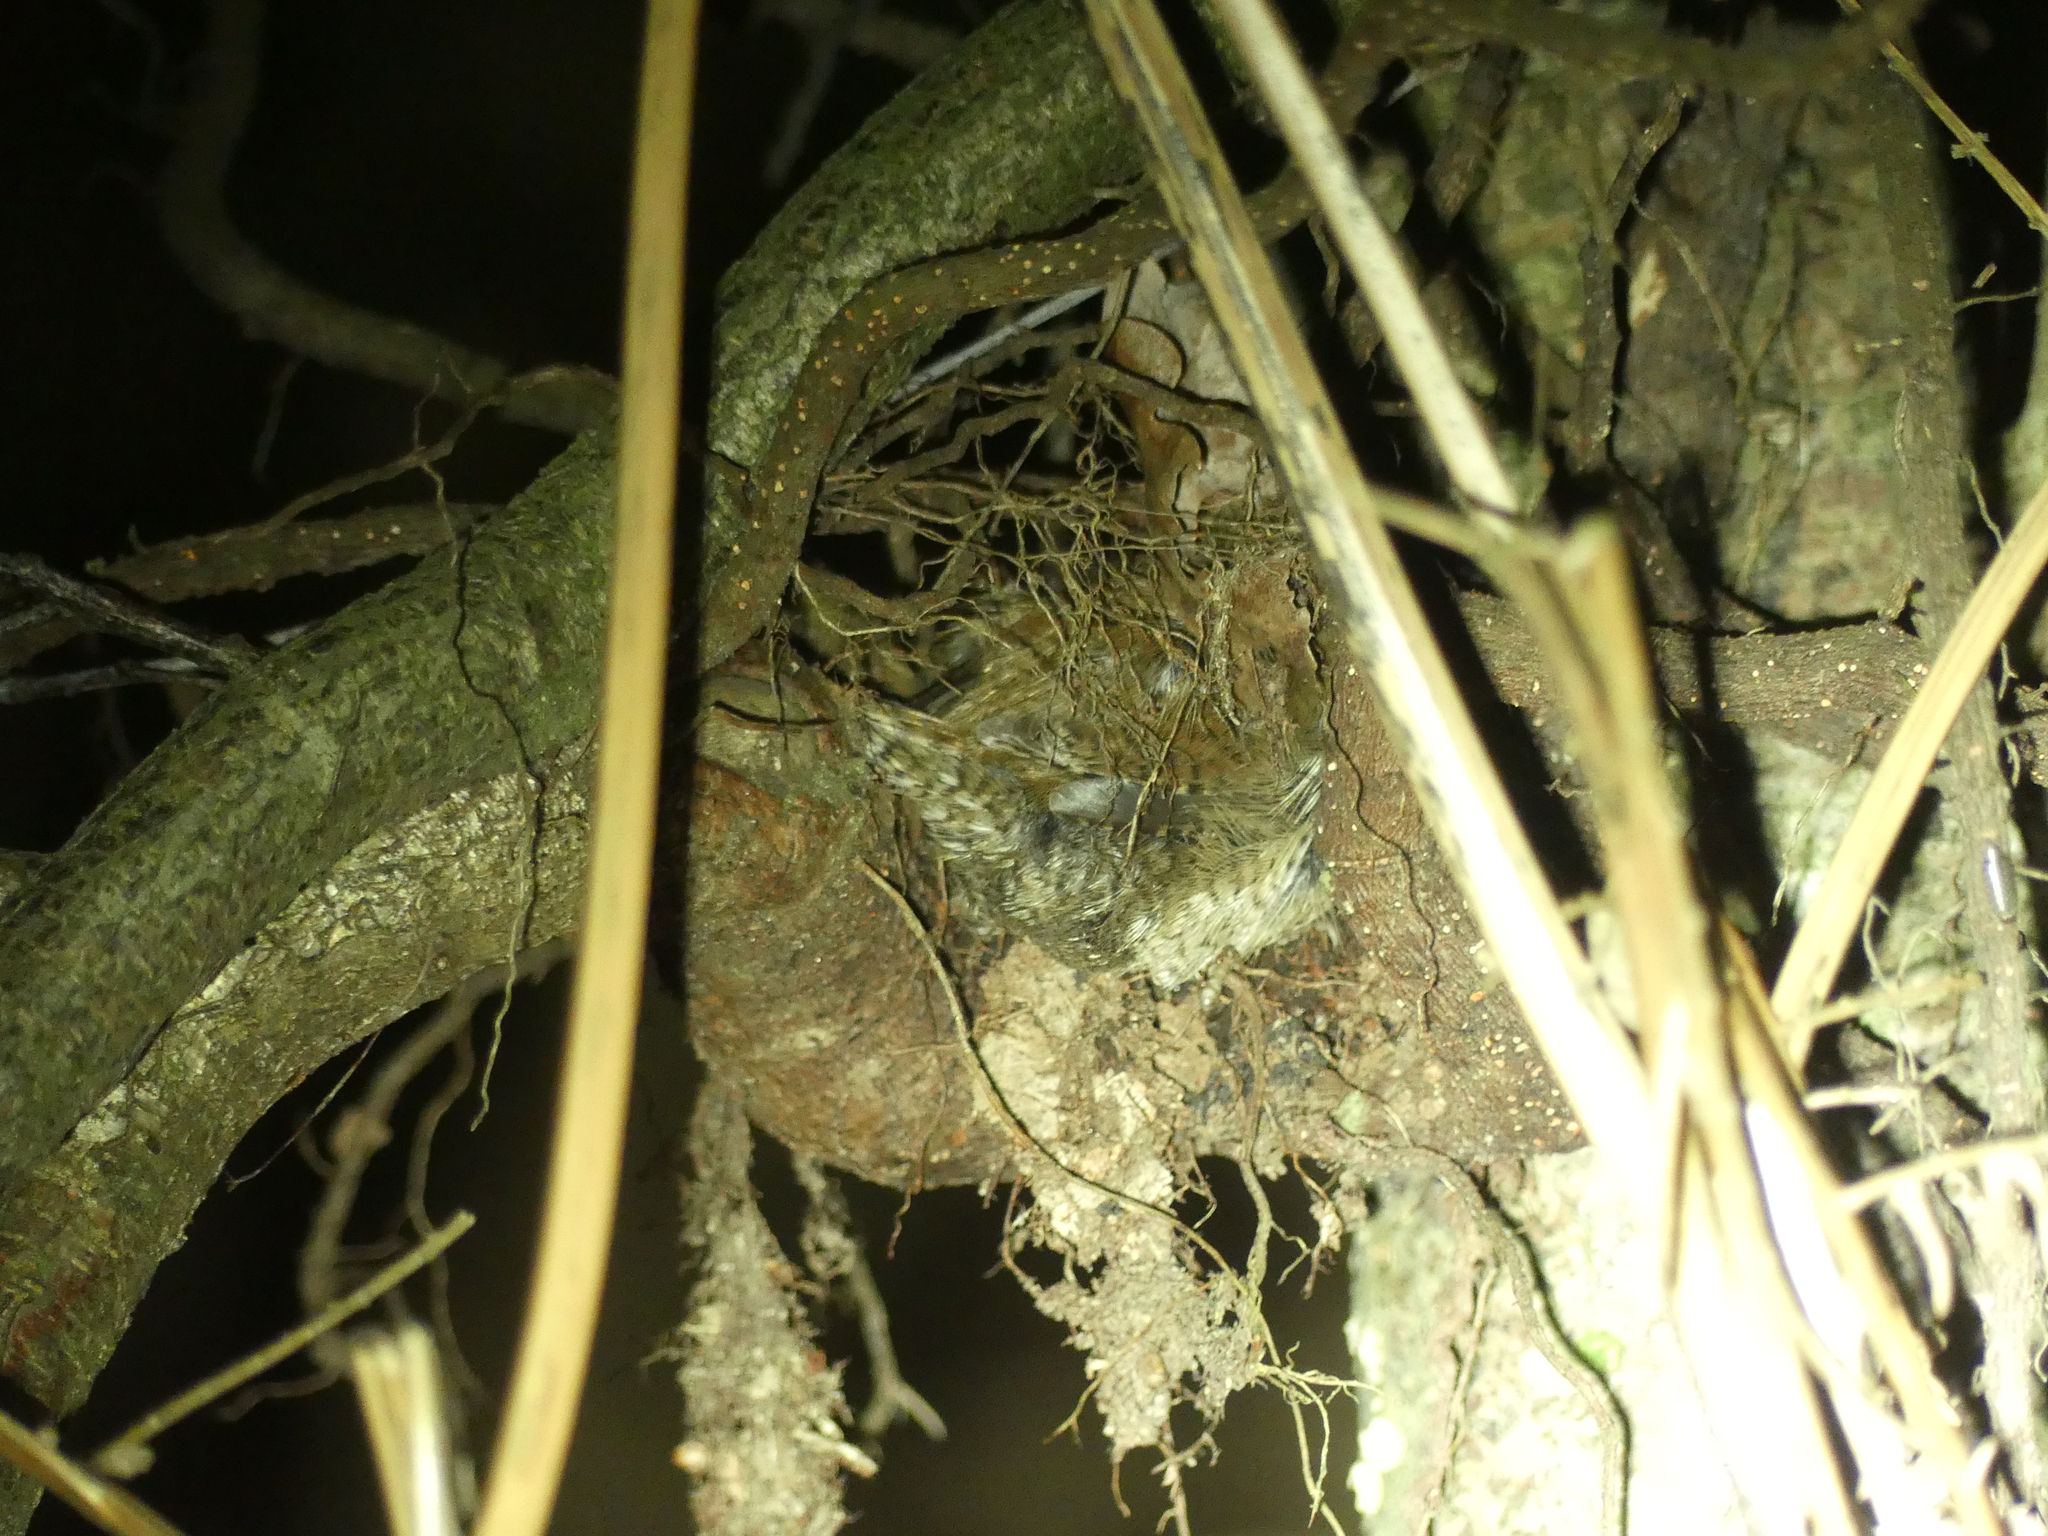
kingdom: Animalia
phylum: Chordata
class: Aves
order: Passeriformes
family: Troglodytidae
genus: Troglodytes
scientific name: Troglodytes troglodytes
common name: Eurasian wren
